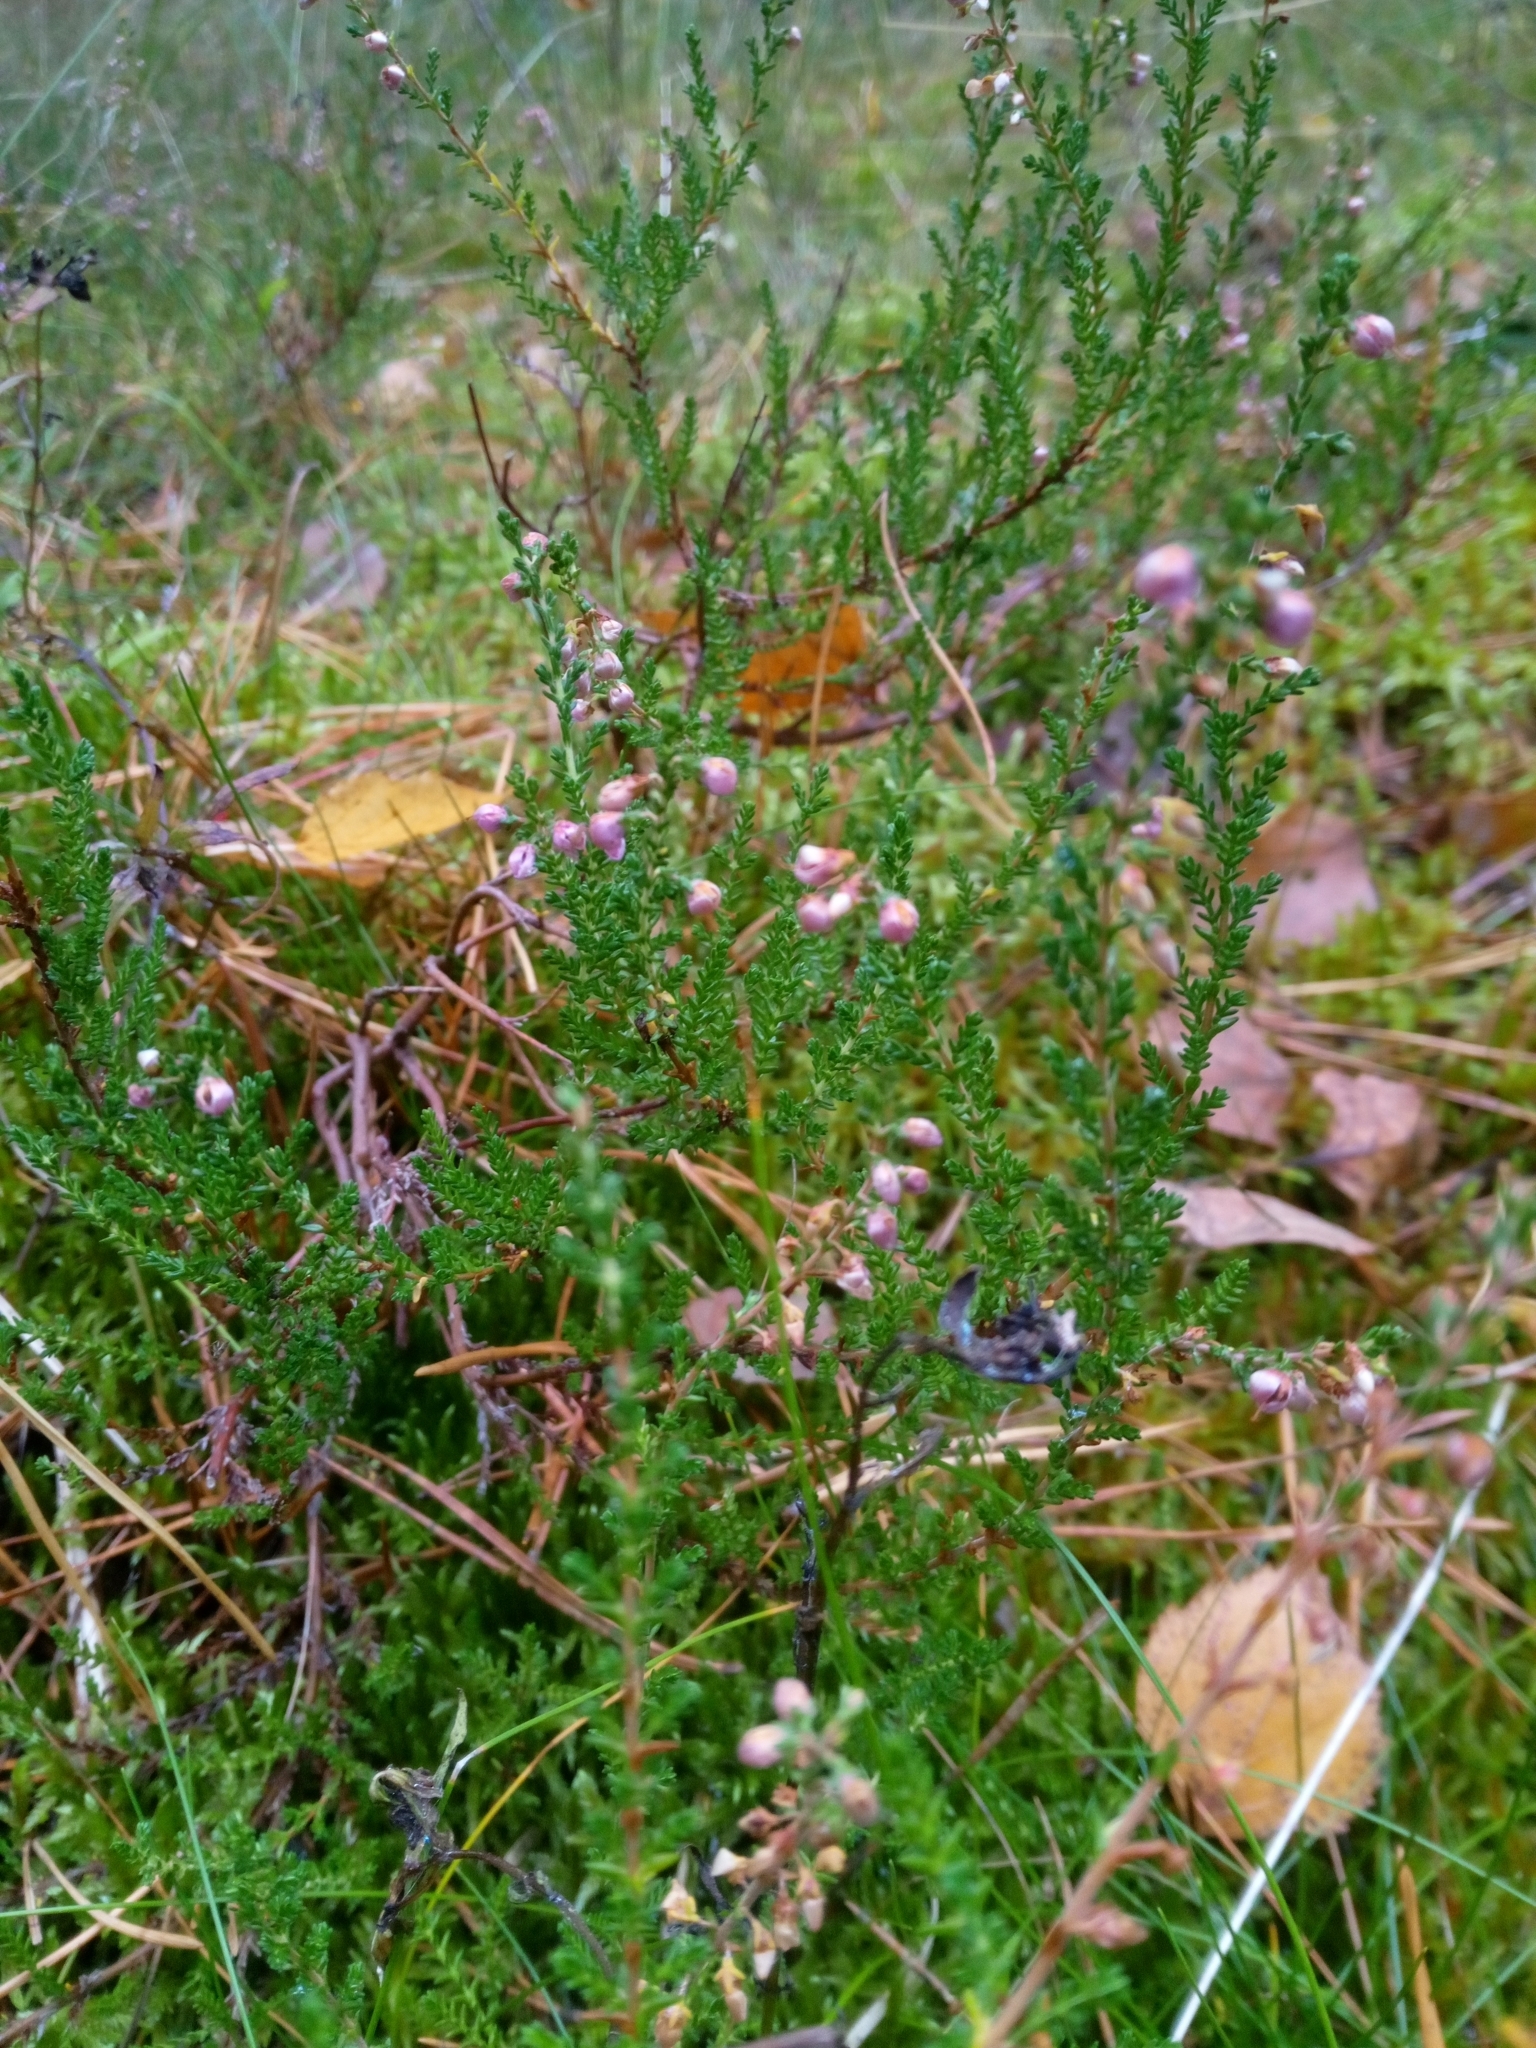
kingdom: Plantae
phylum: Tracheophyta
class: Magnoliopsida
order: Ericales
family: Ericaceae
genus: Calluna
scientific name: Calluna vulgaris
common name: Heather
